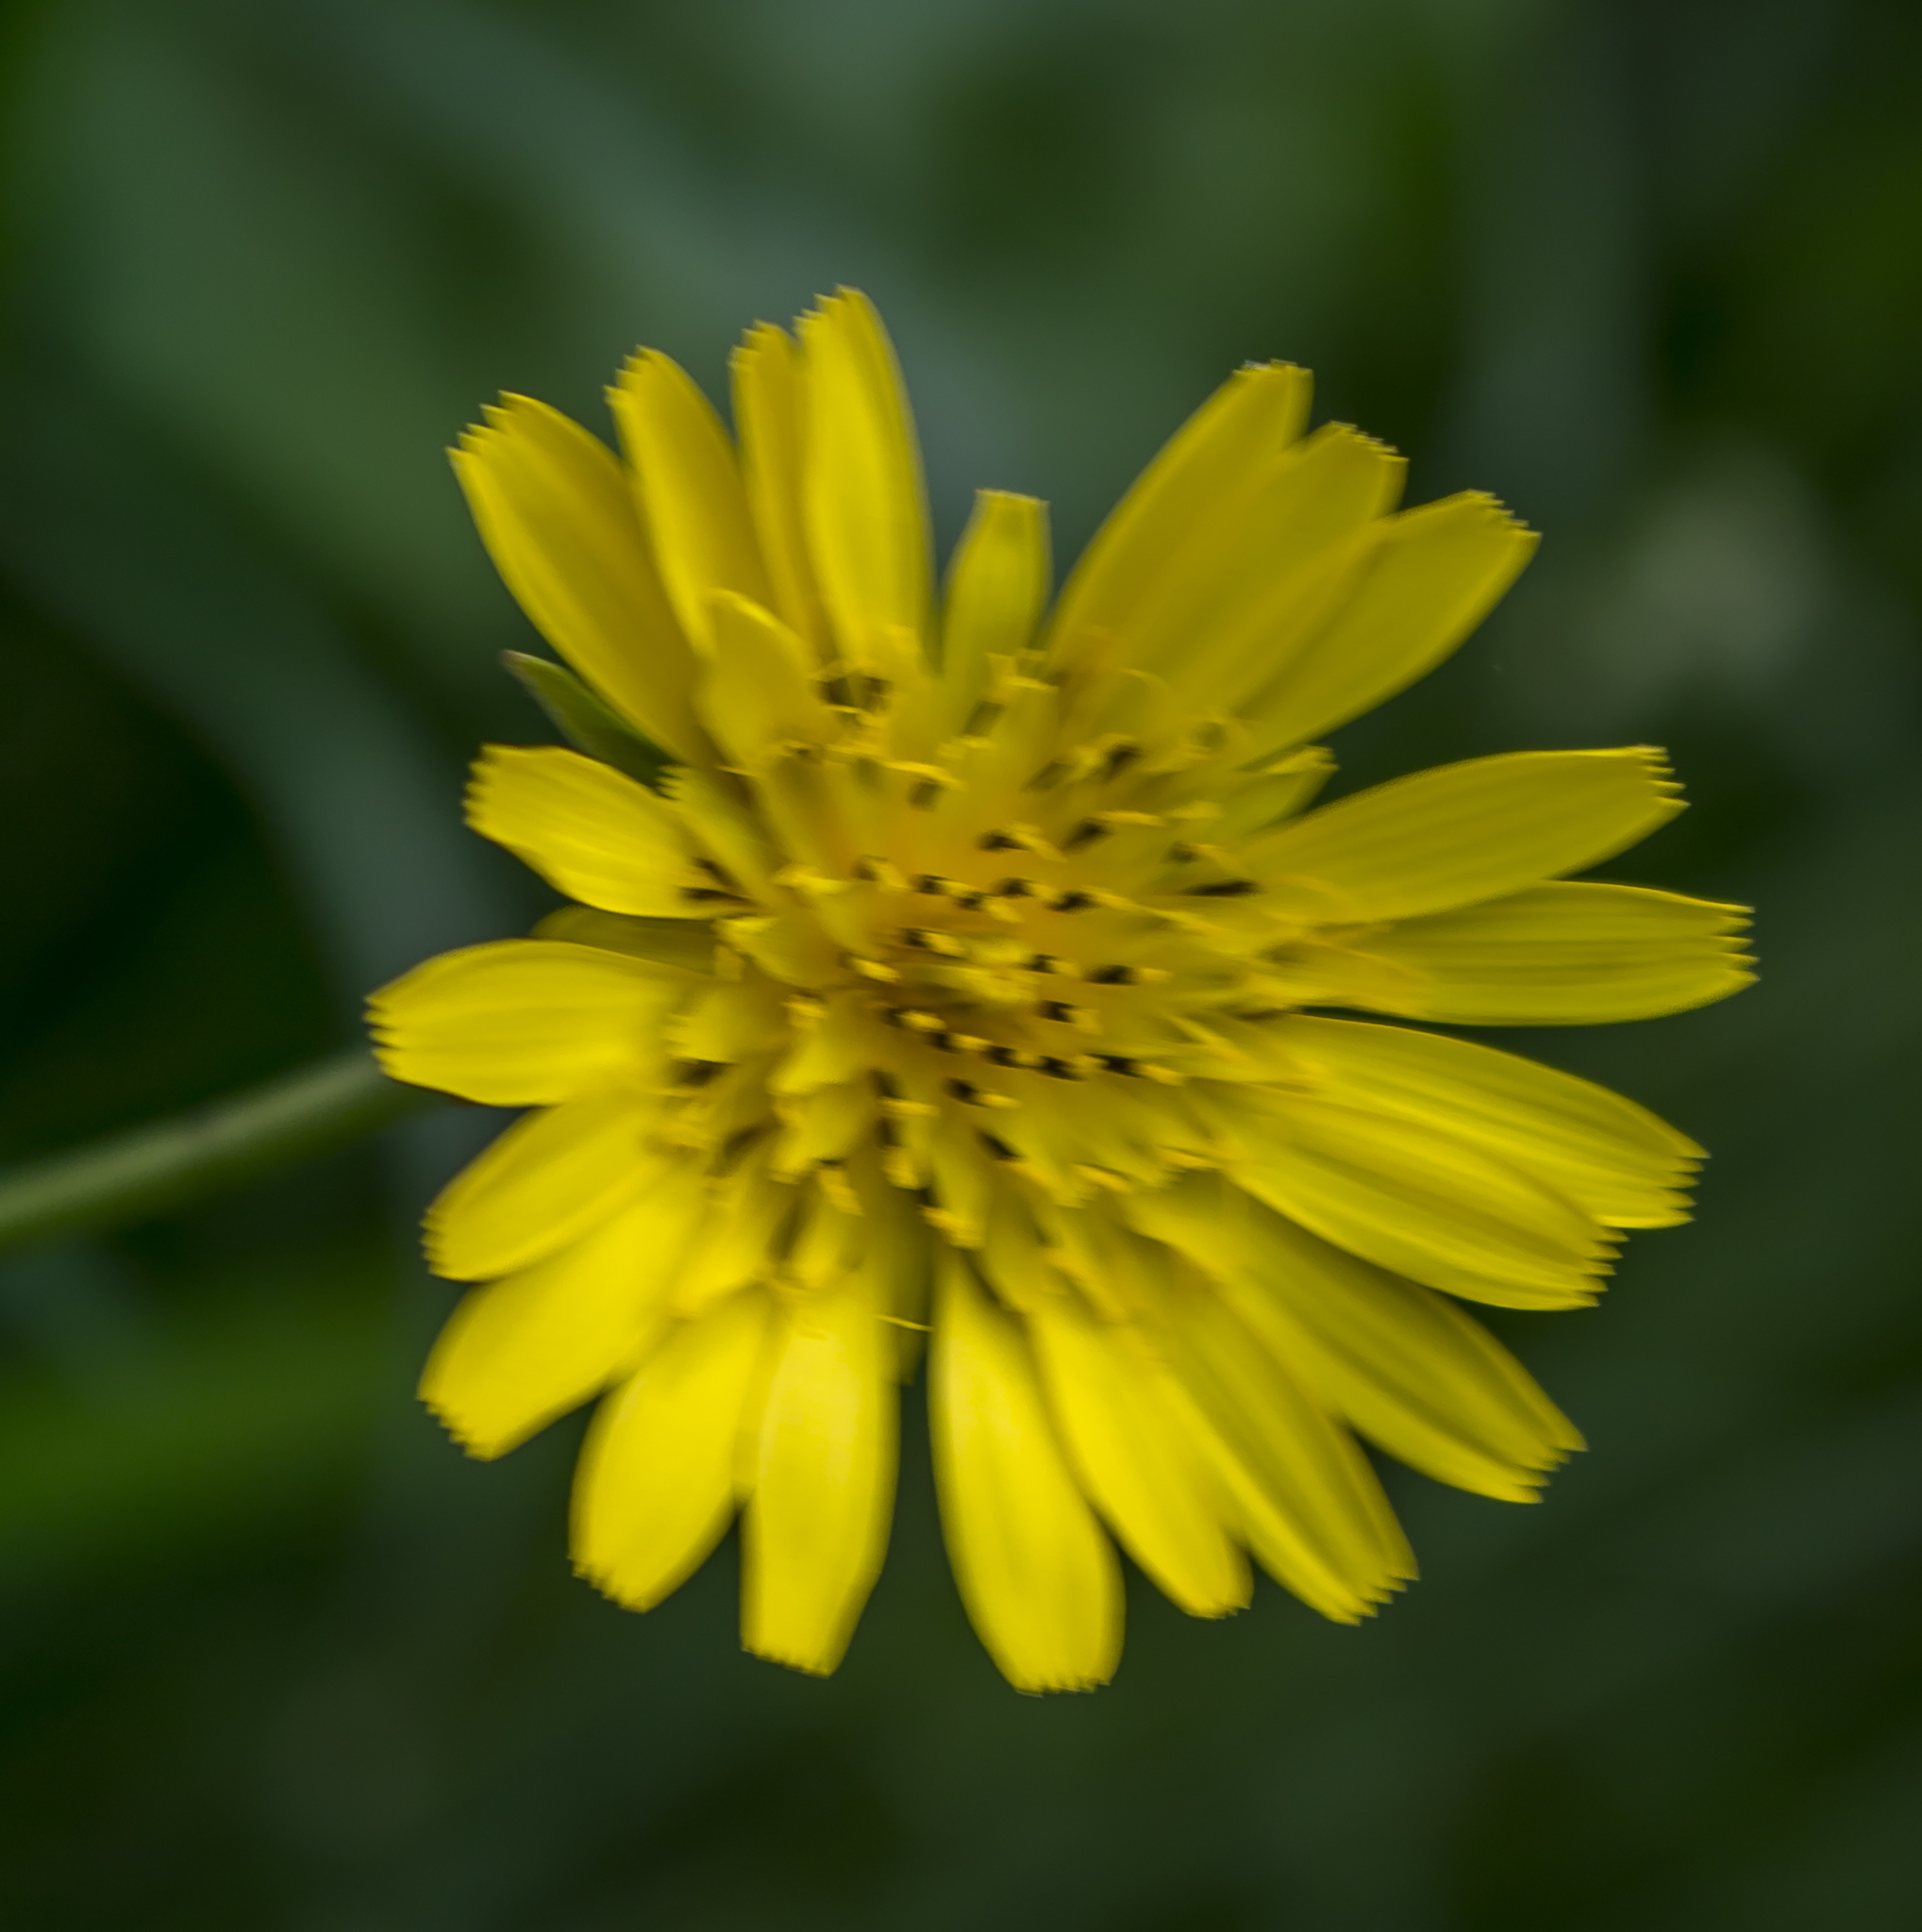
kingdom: Plantae
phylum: Tracheophyta
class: Magnoliopsida
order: Asterales
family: Asteraceae
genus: Tragopogon
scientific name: Tragopogon pratensis
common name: Goat's-beard
